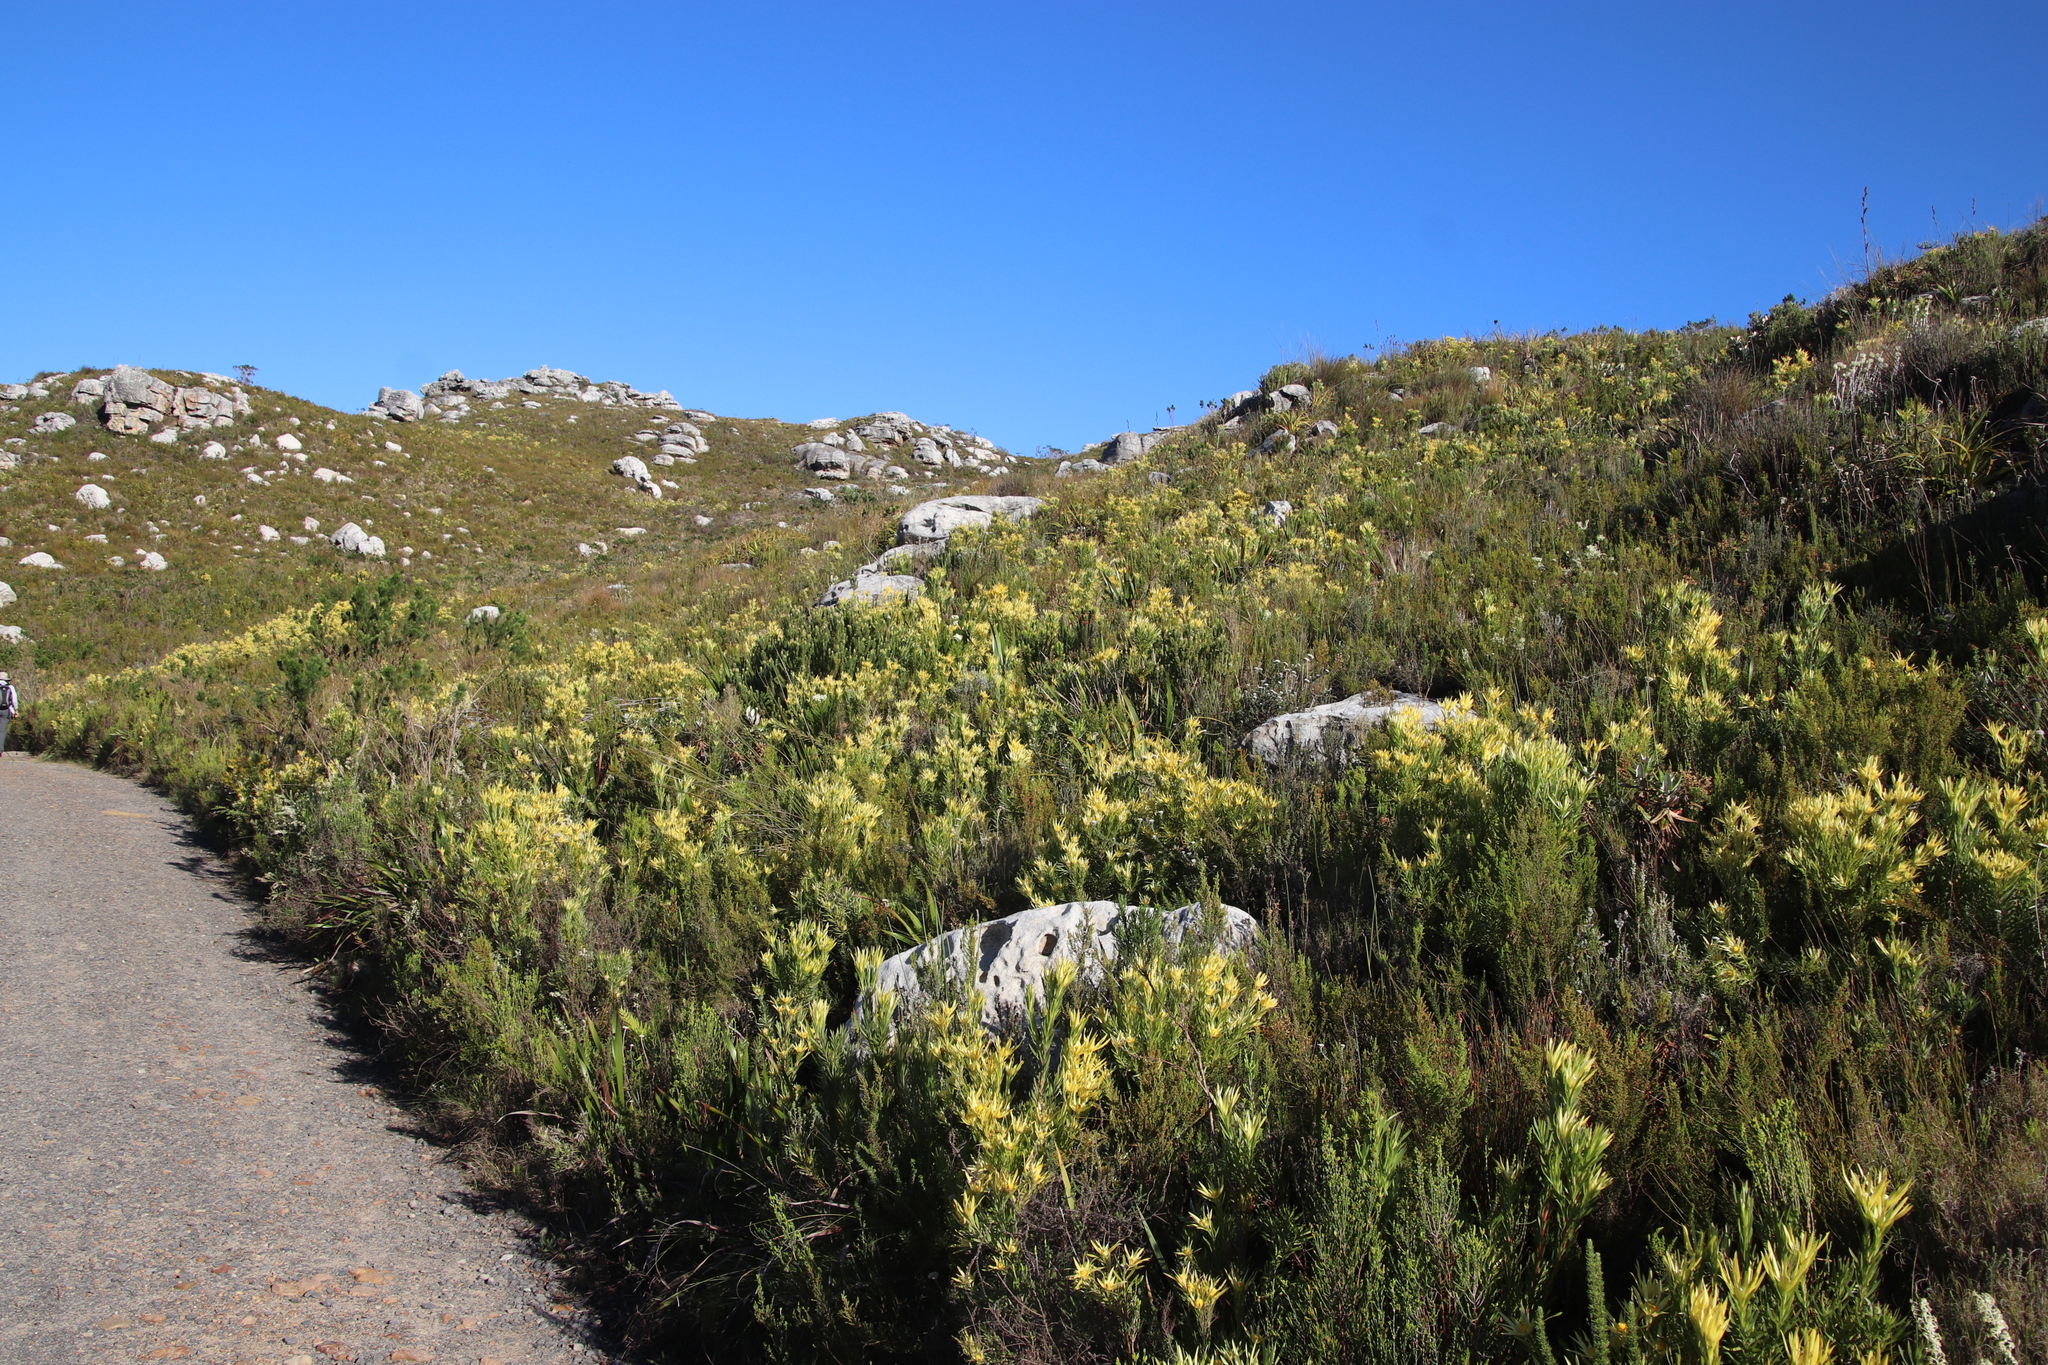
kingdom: Plantae
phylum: Tracheophyta
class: Magnoliopsida
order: Proteales
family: Proteaceae
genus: Leucadendron
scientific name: Leucadendron xanthoconus
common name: Sickle-leaf conebush
